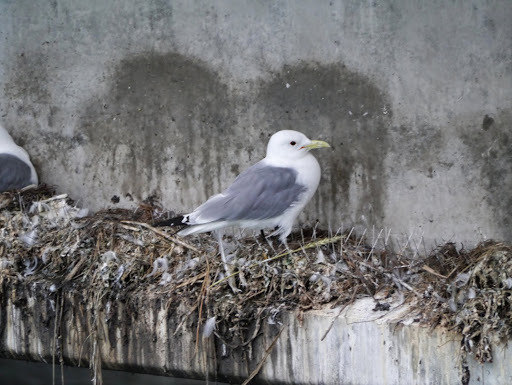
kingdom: Animalia
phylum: Chordata
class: Aves
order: Charadriiformes
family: Laridae
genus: Rissa
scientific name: Rissa tridactyla
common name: Black-legged kittiwake
